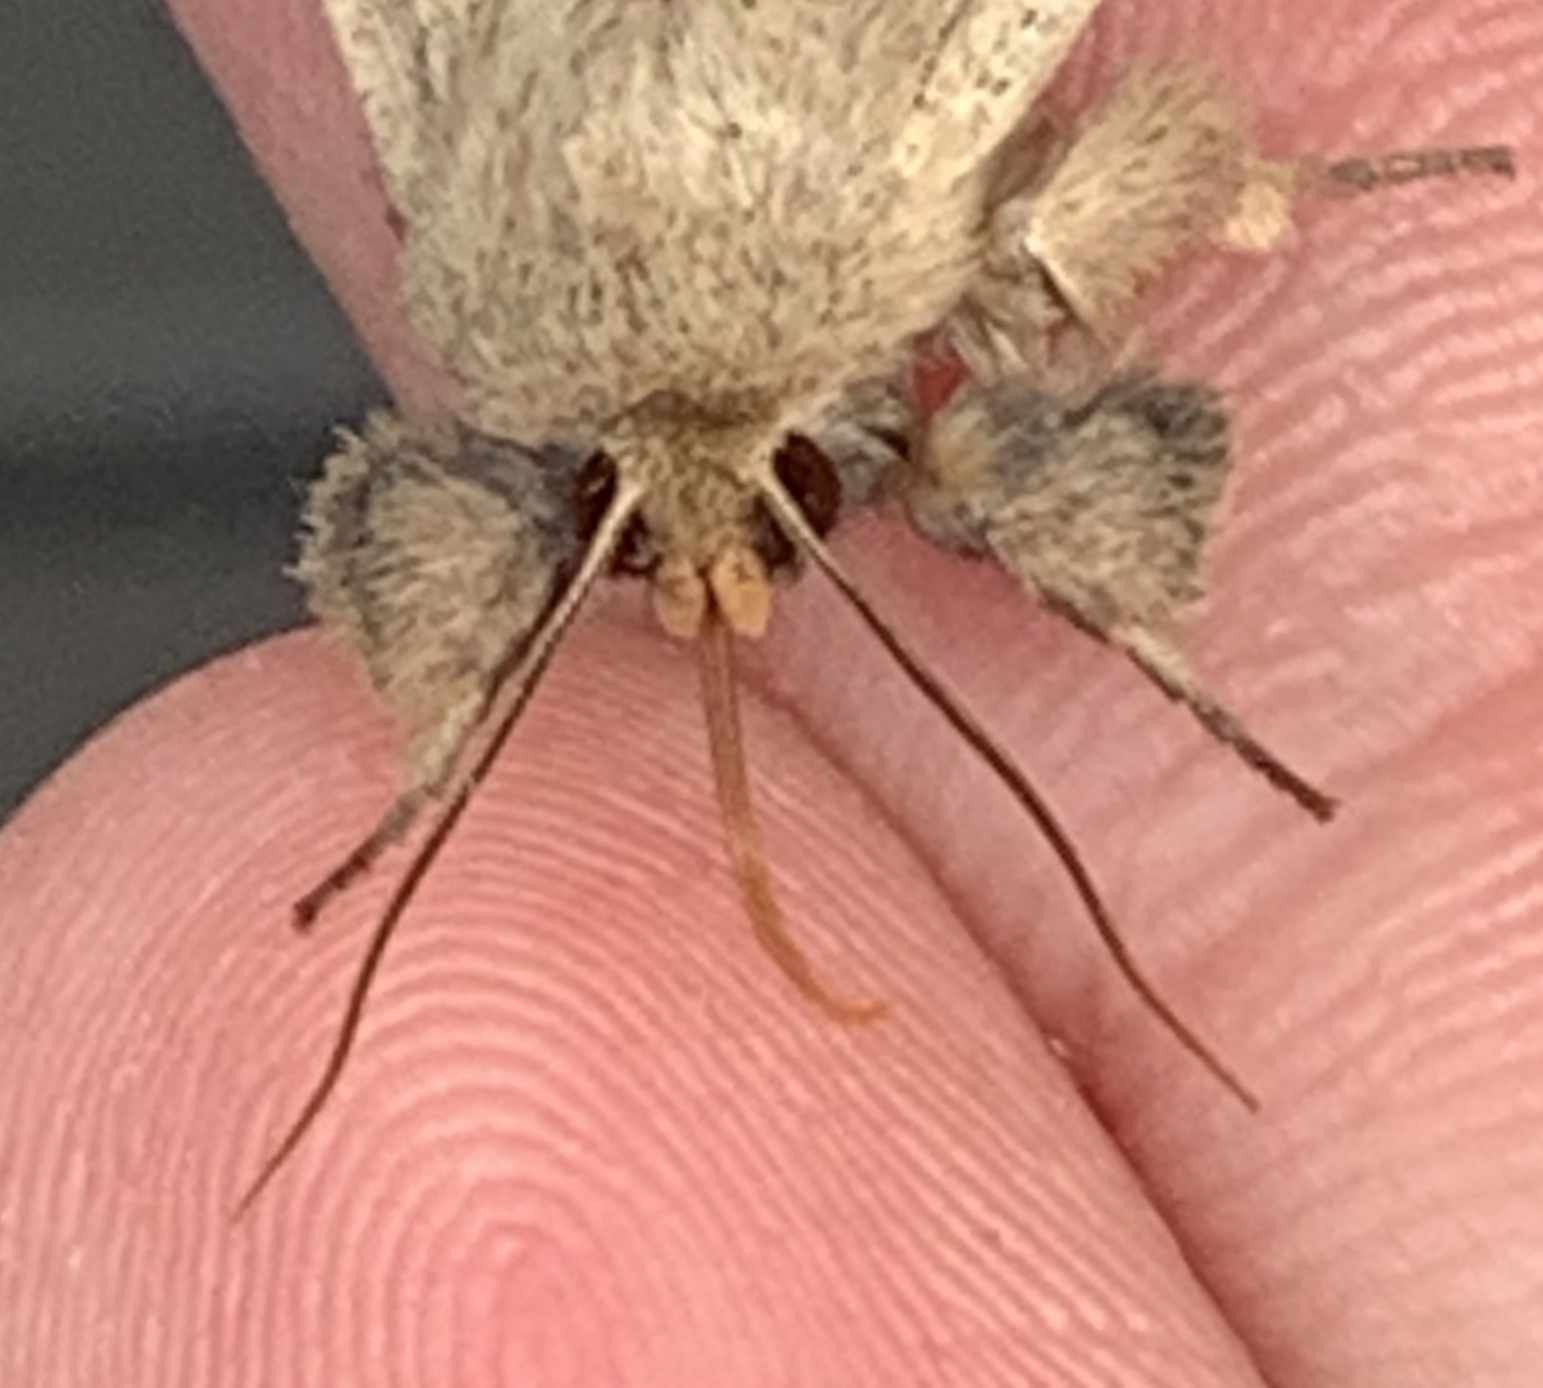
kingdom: Animalia
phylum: Arthropoda
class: Insecta
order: Lepidoptera
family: Noctuidae
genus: Leucania
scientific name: Leucania ursula
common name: Ursula wainscot
